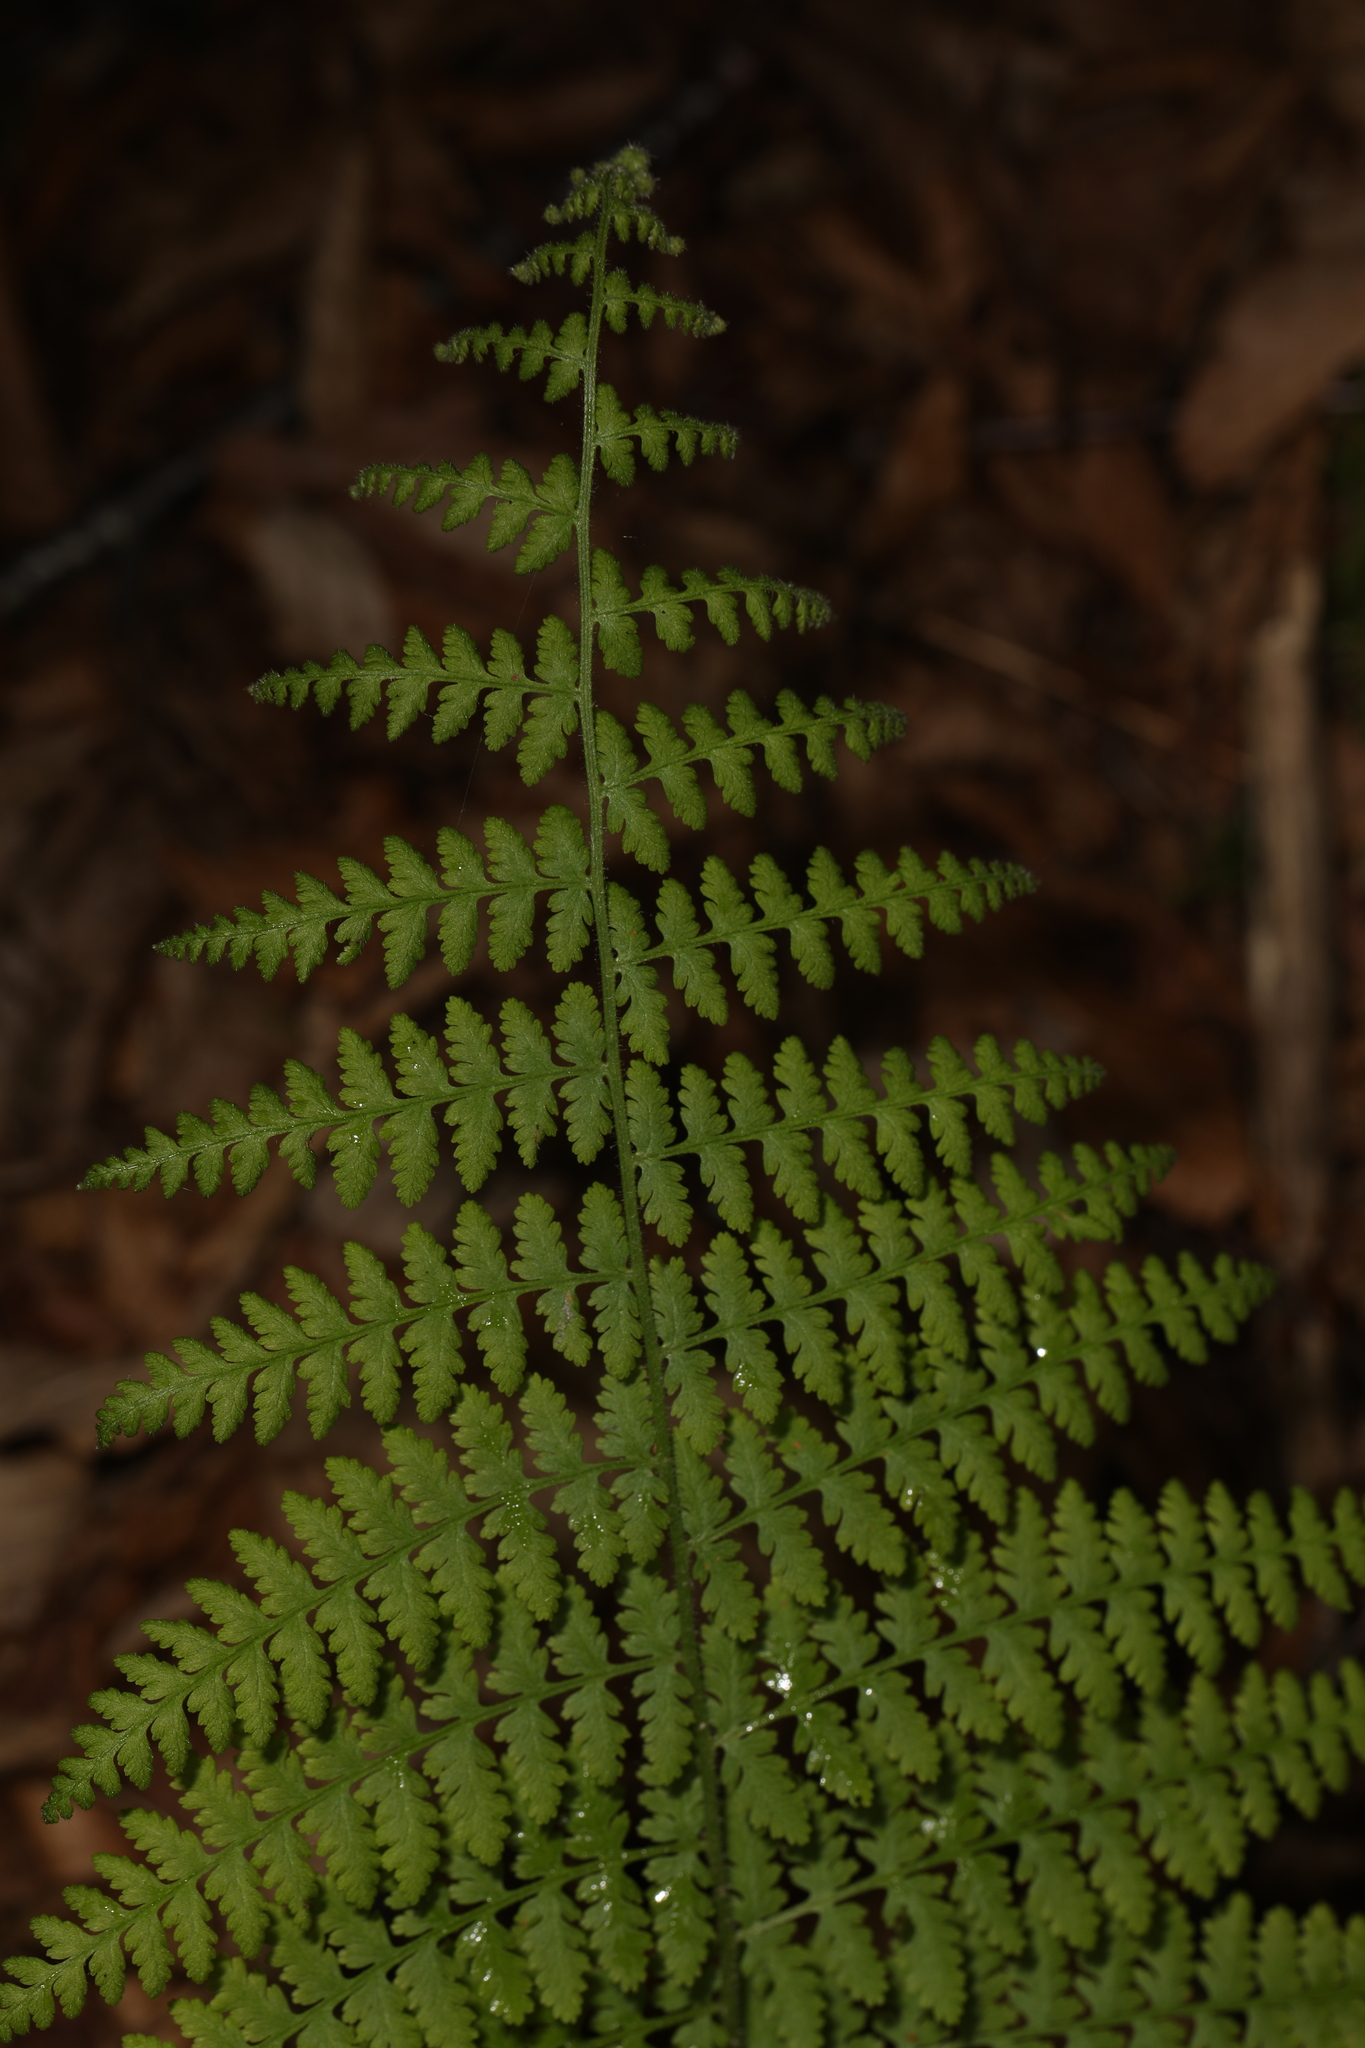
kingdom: Plantae
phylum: Tracheophyta
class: Polypodiopsida
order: Polypodiales
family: Dennstaedtiaceae
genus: Sitobolium
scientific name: Sitobolium punctilobum
